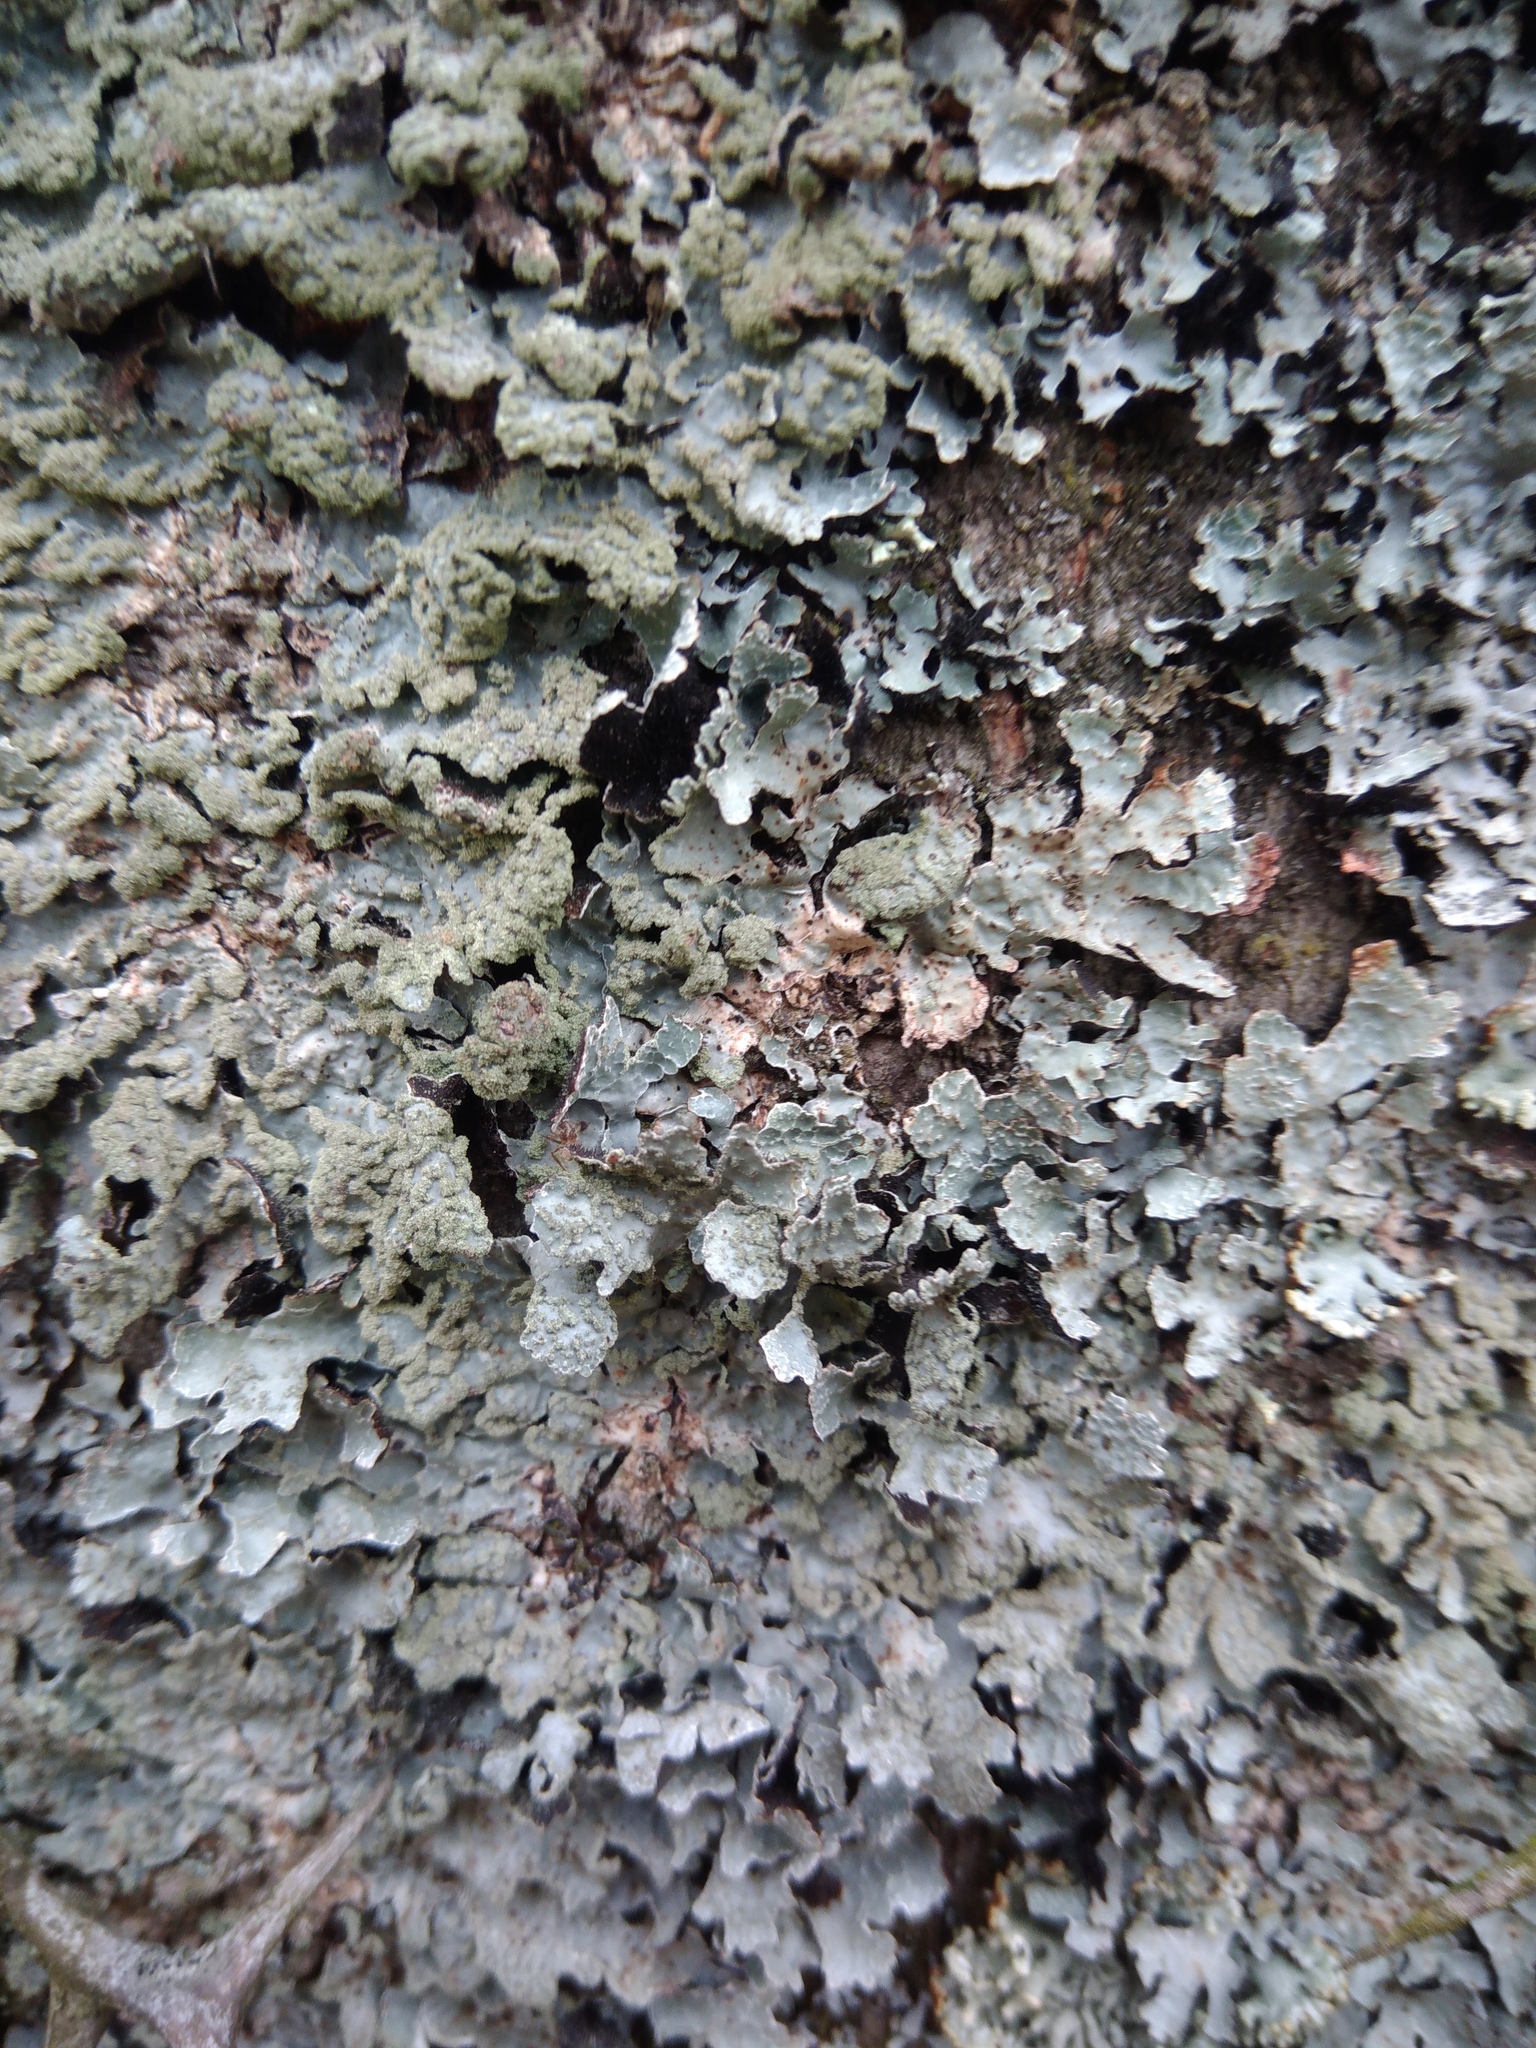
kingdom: Fungi
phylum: Ascomycota
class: Lecanoromycetes
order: Lecanorales
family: Parmeliaceae
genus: Parmelia
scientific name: Parmelia sulcata
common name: Netted shield lichen
